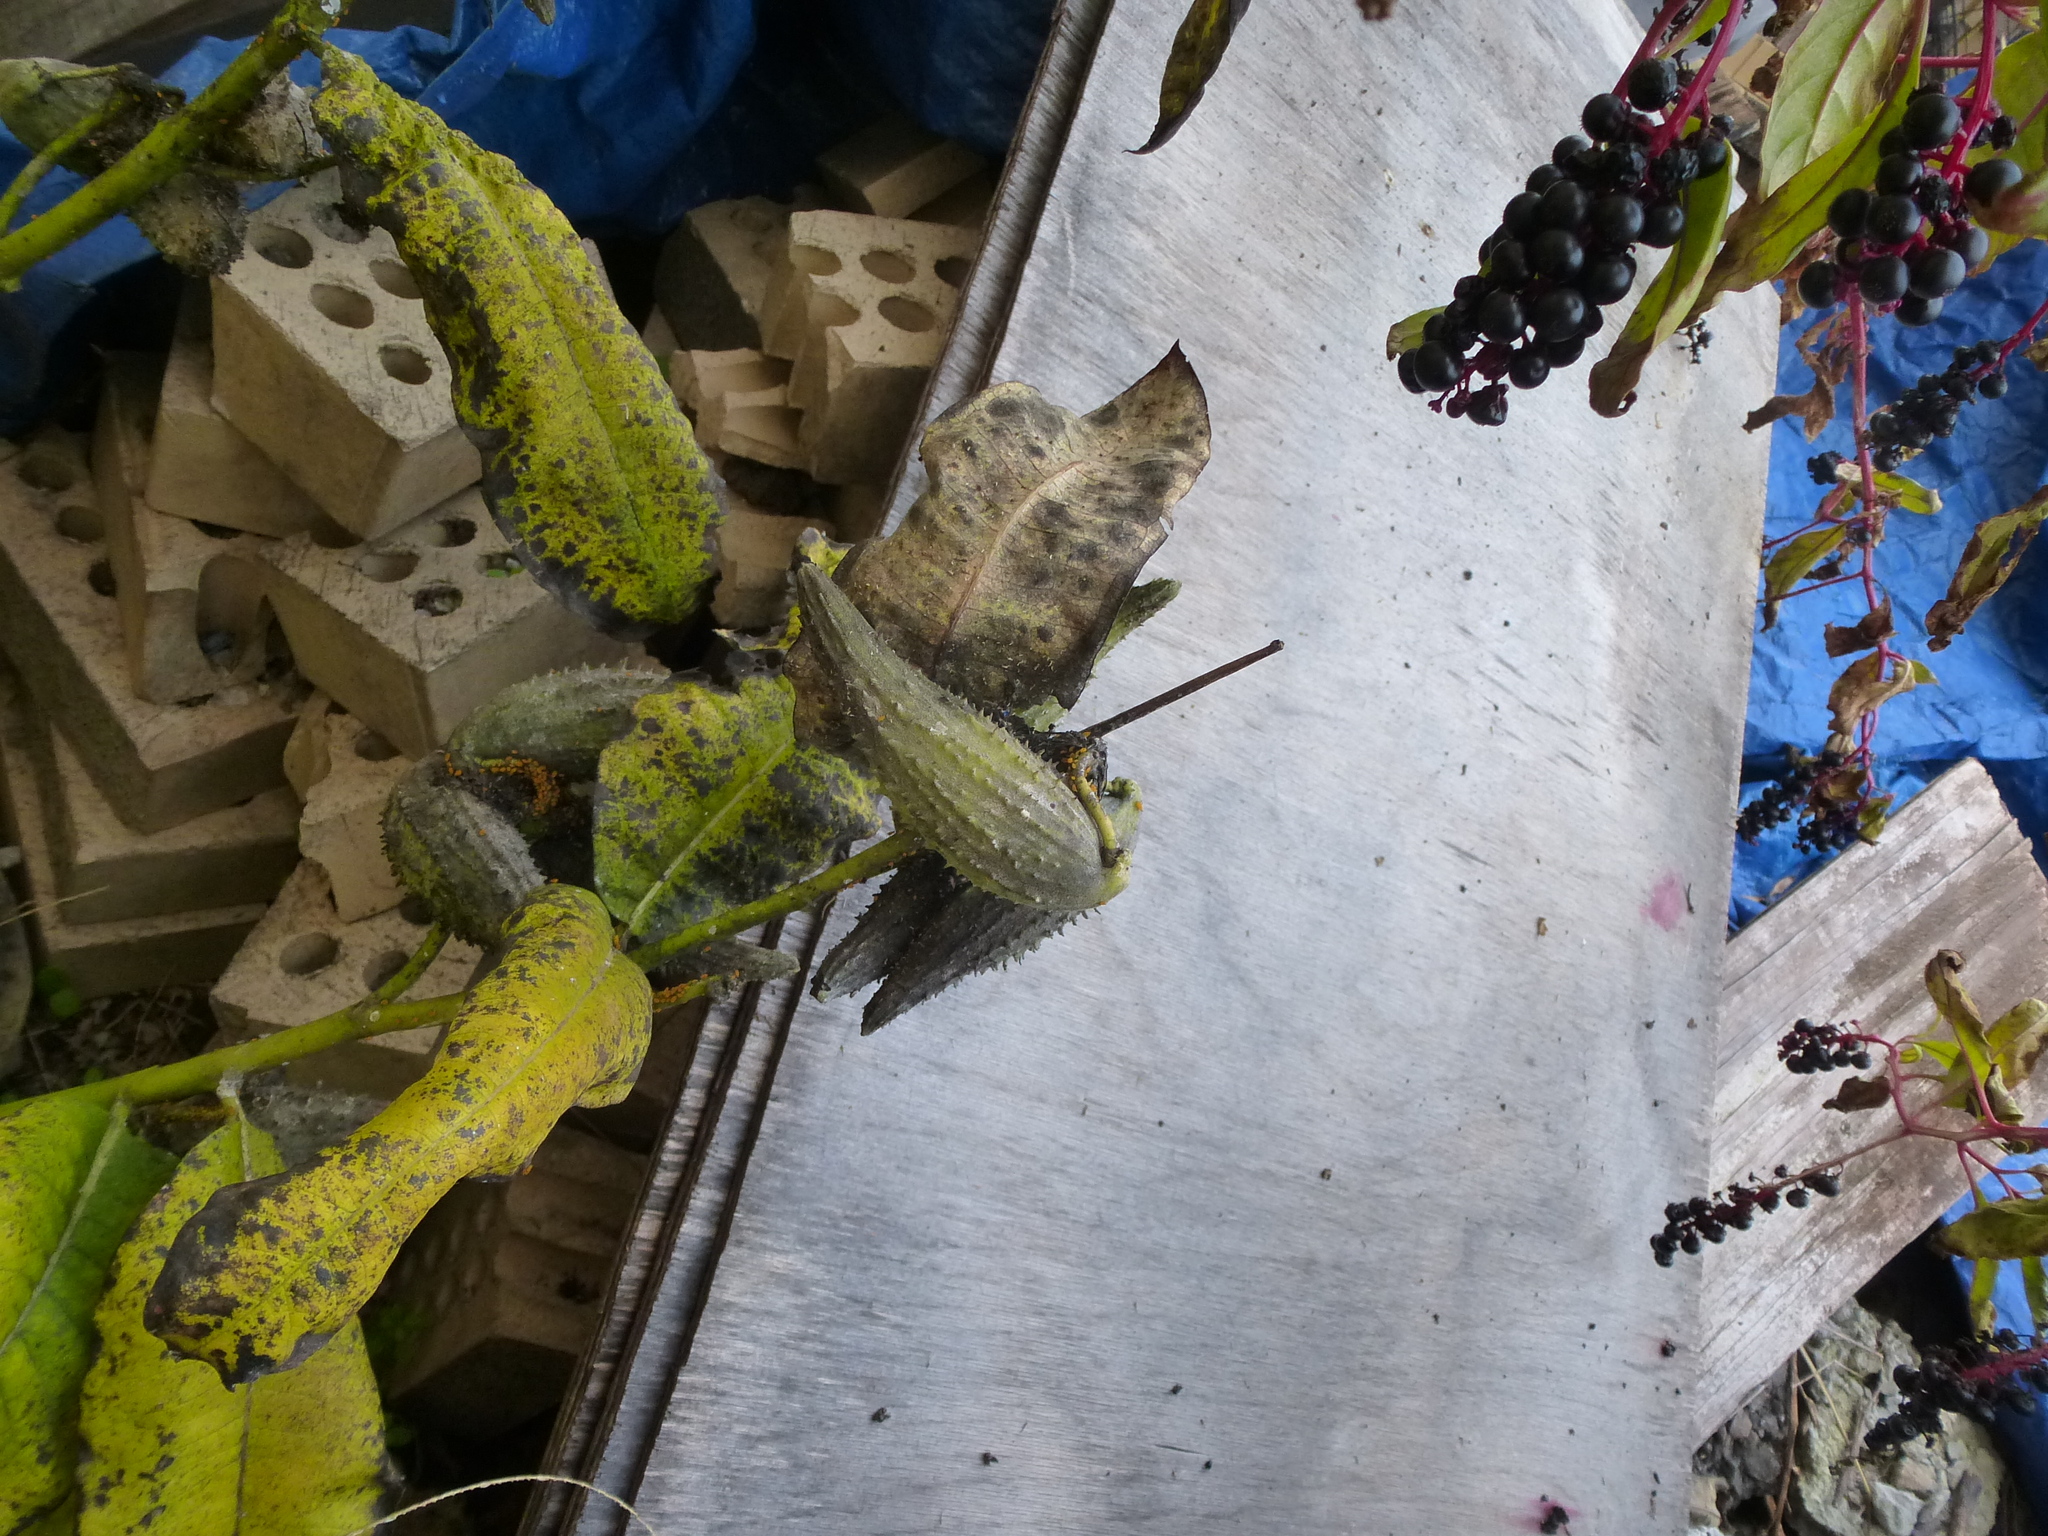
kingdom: Plantae
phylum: Tracheophyta
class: Magnoliopsida
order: Gentianales
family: Apocynaceae
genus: Asclepias
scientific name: Asclepias syriaca
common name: Common milkweed
